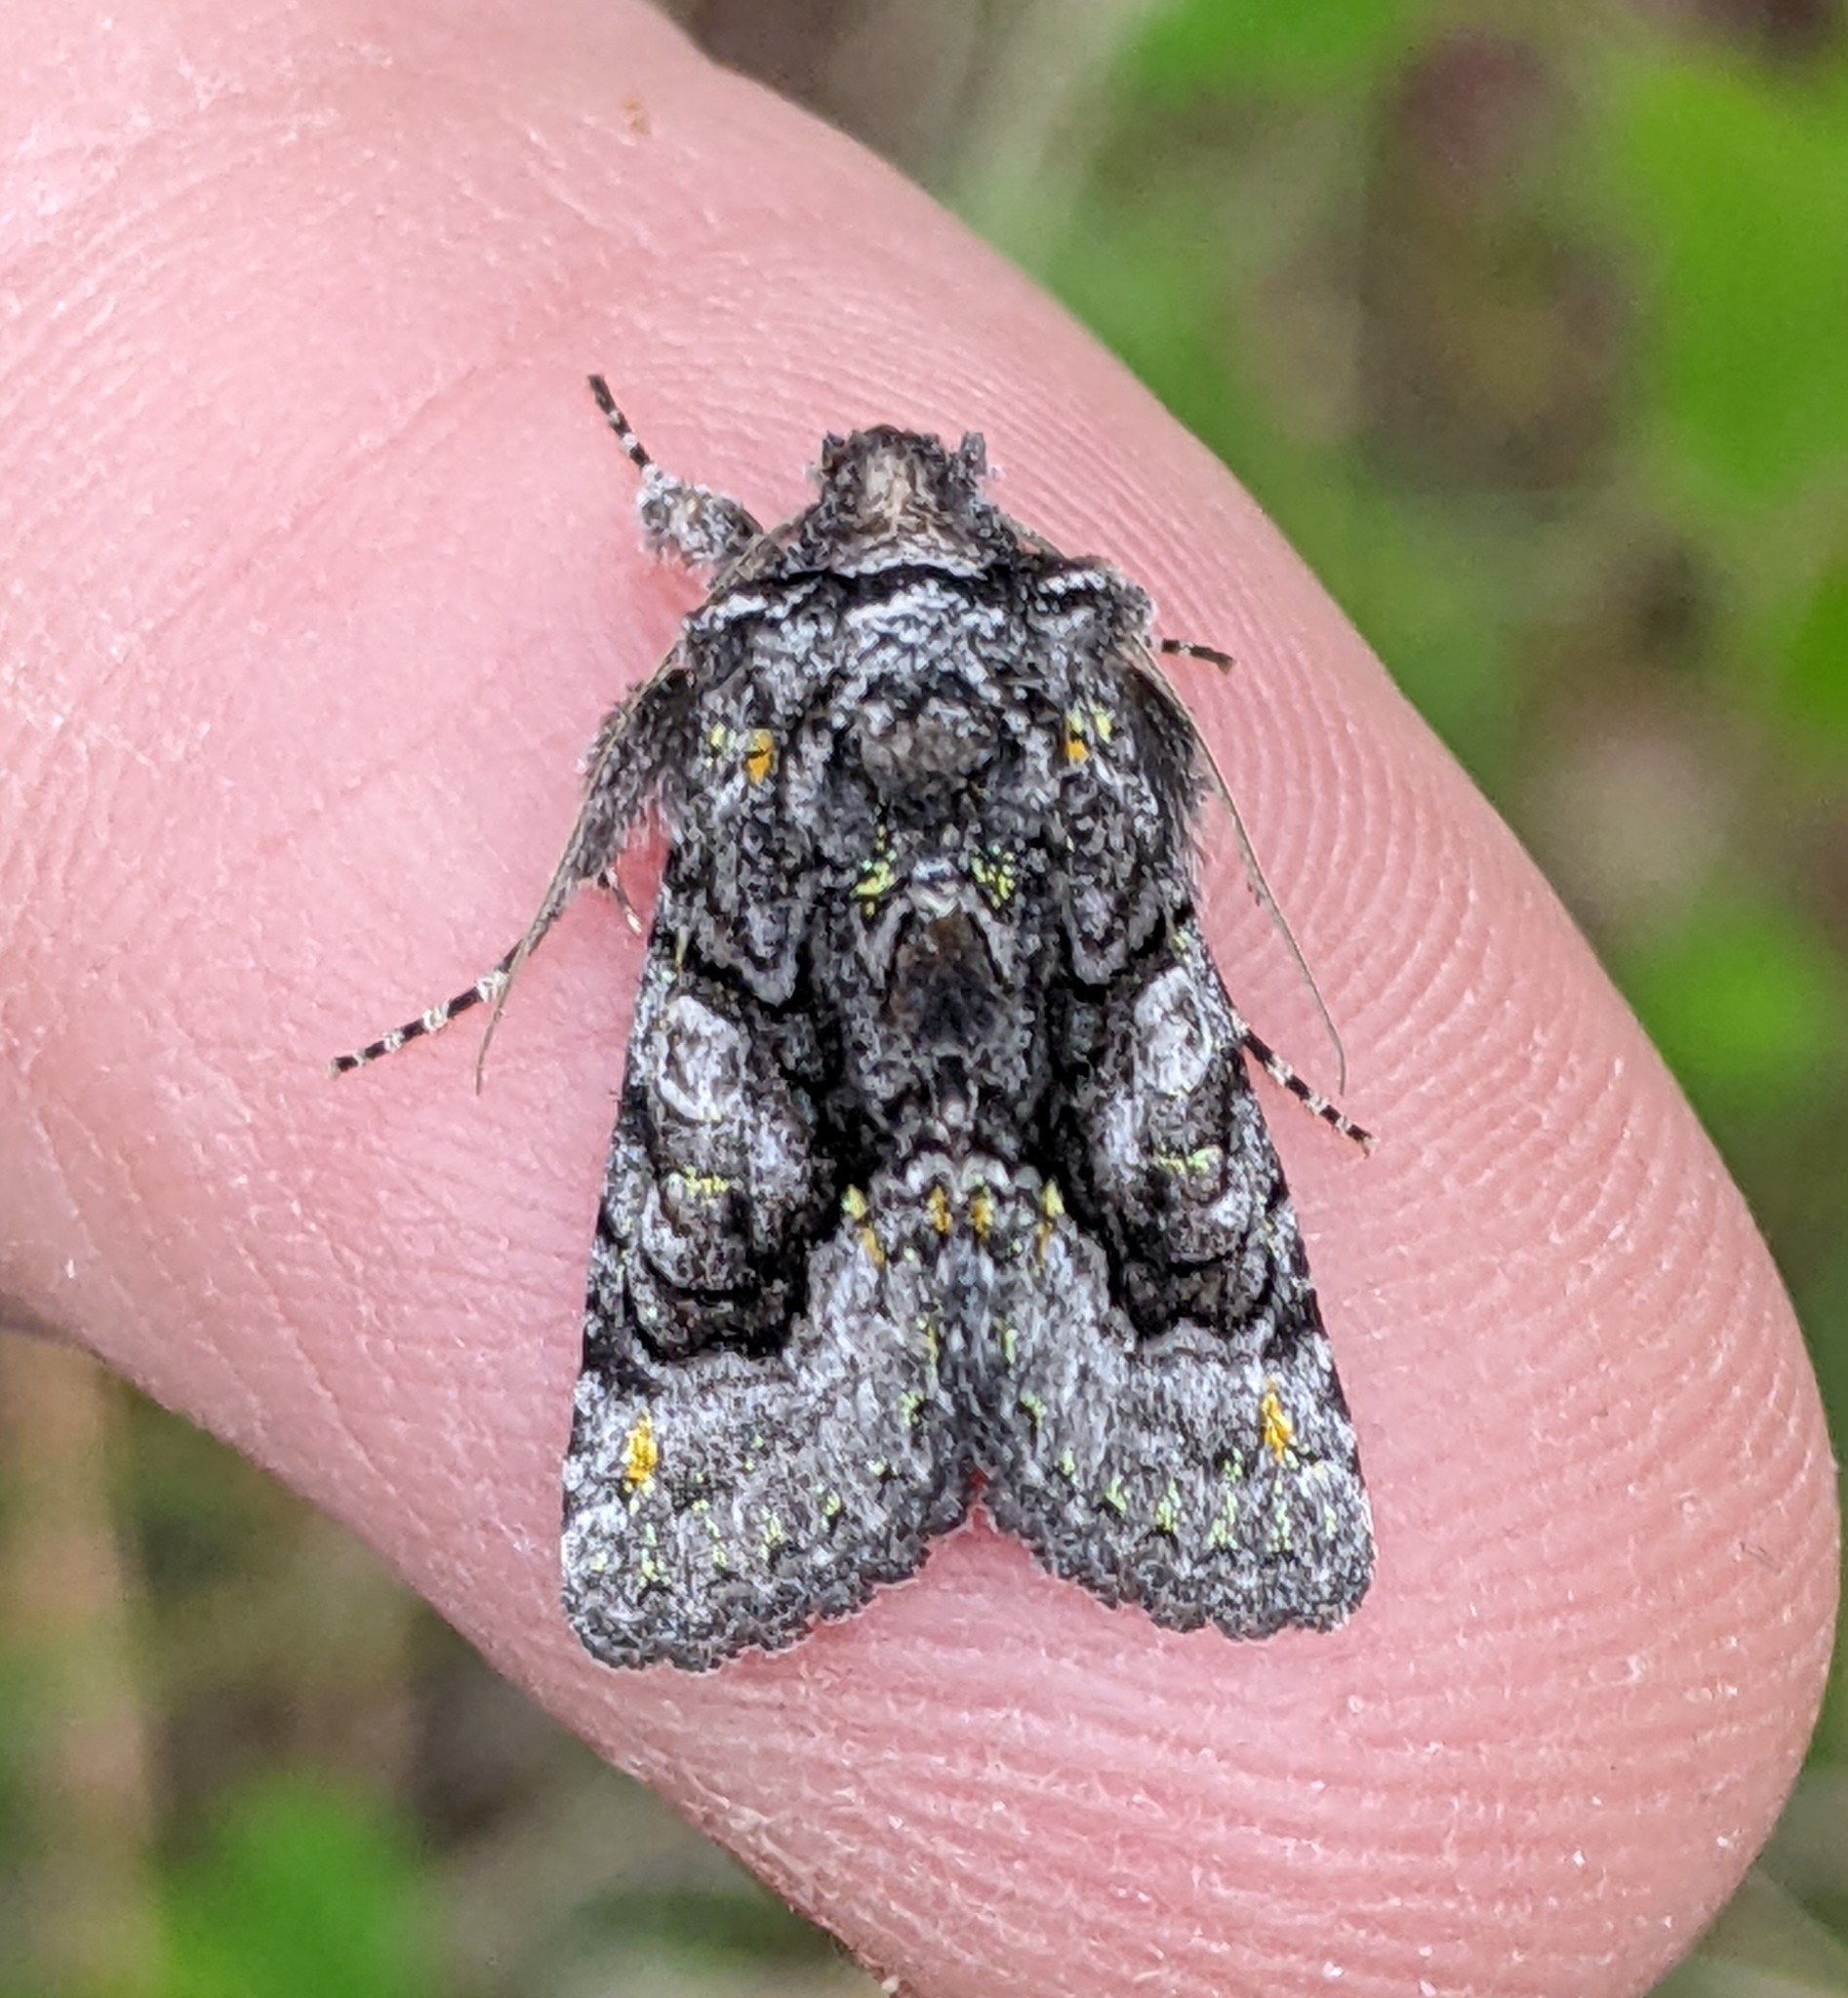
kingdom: Animalia
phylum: Arthropoda
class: Insecta
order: Lepidoptera
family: Noctuidae
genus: Behrensia
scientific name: Behrensia conchiformis
